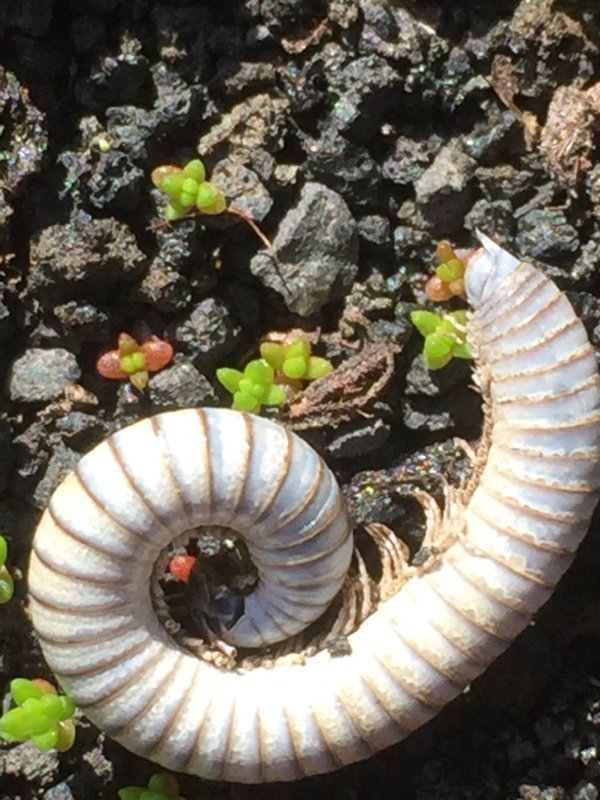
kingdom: Animalia
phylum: Arthropoda
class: Diplopoda
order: Julida
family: Julidae
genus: Ommatoiulus
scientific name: Ommatoiulus moreleti
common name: Portuguese millipede
